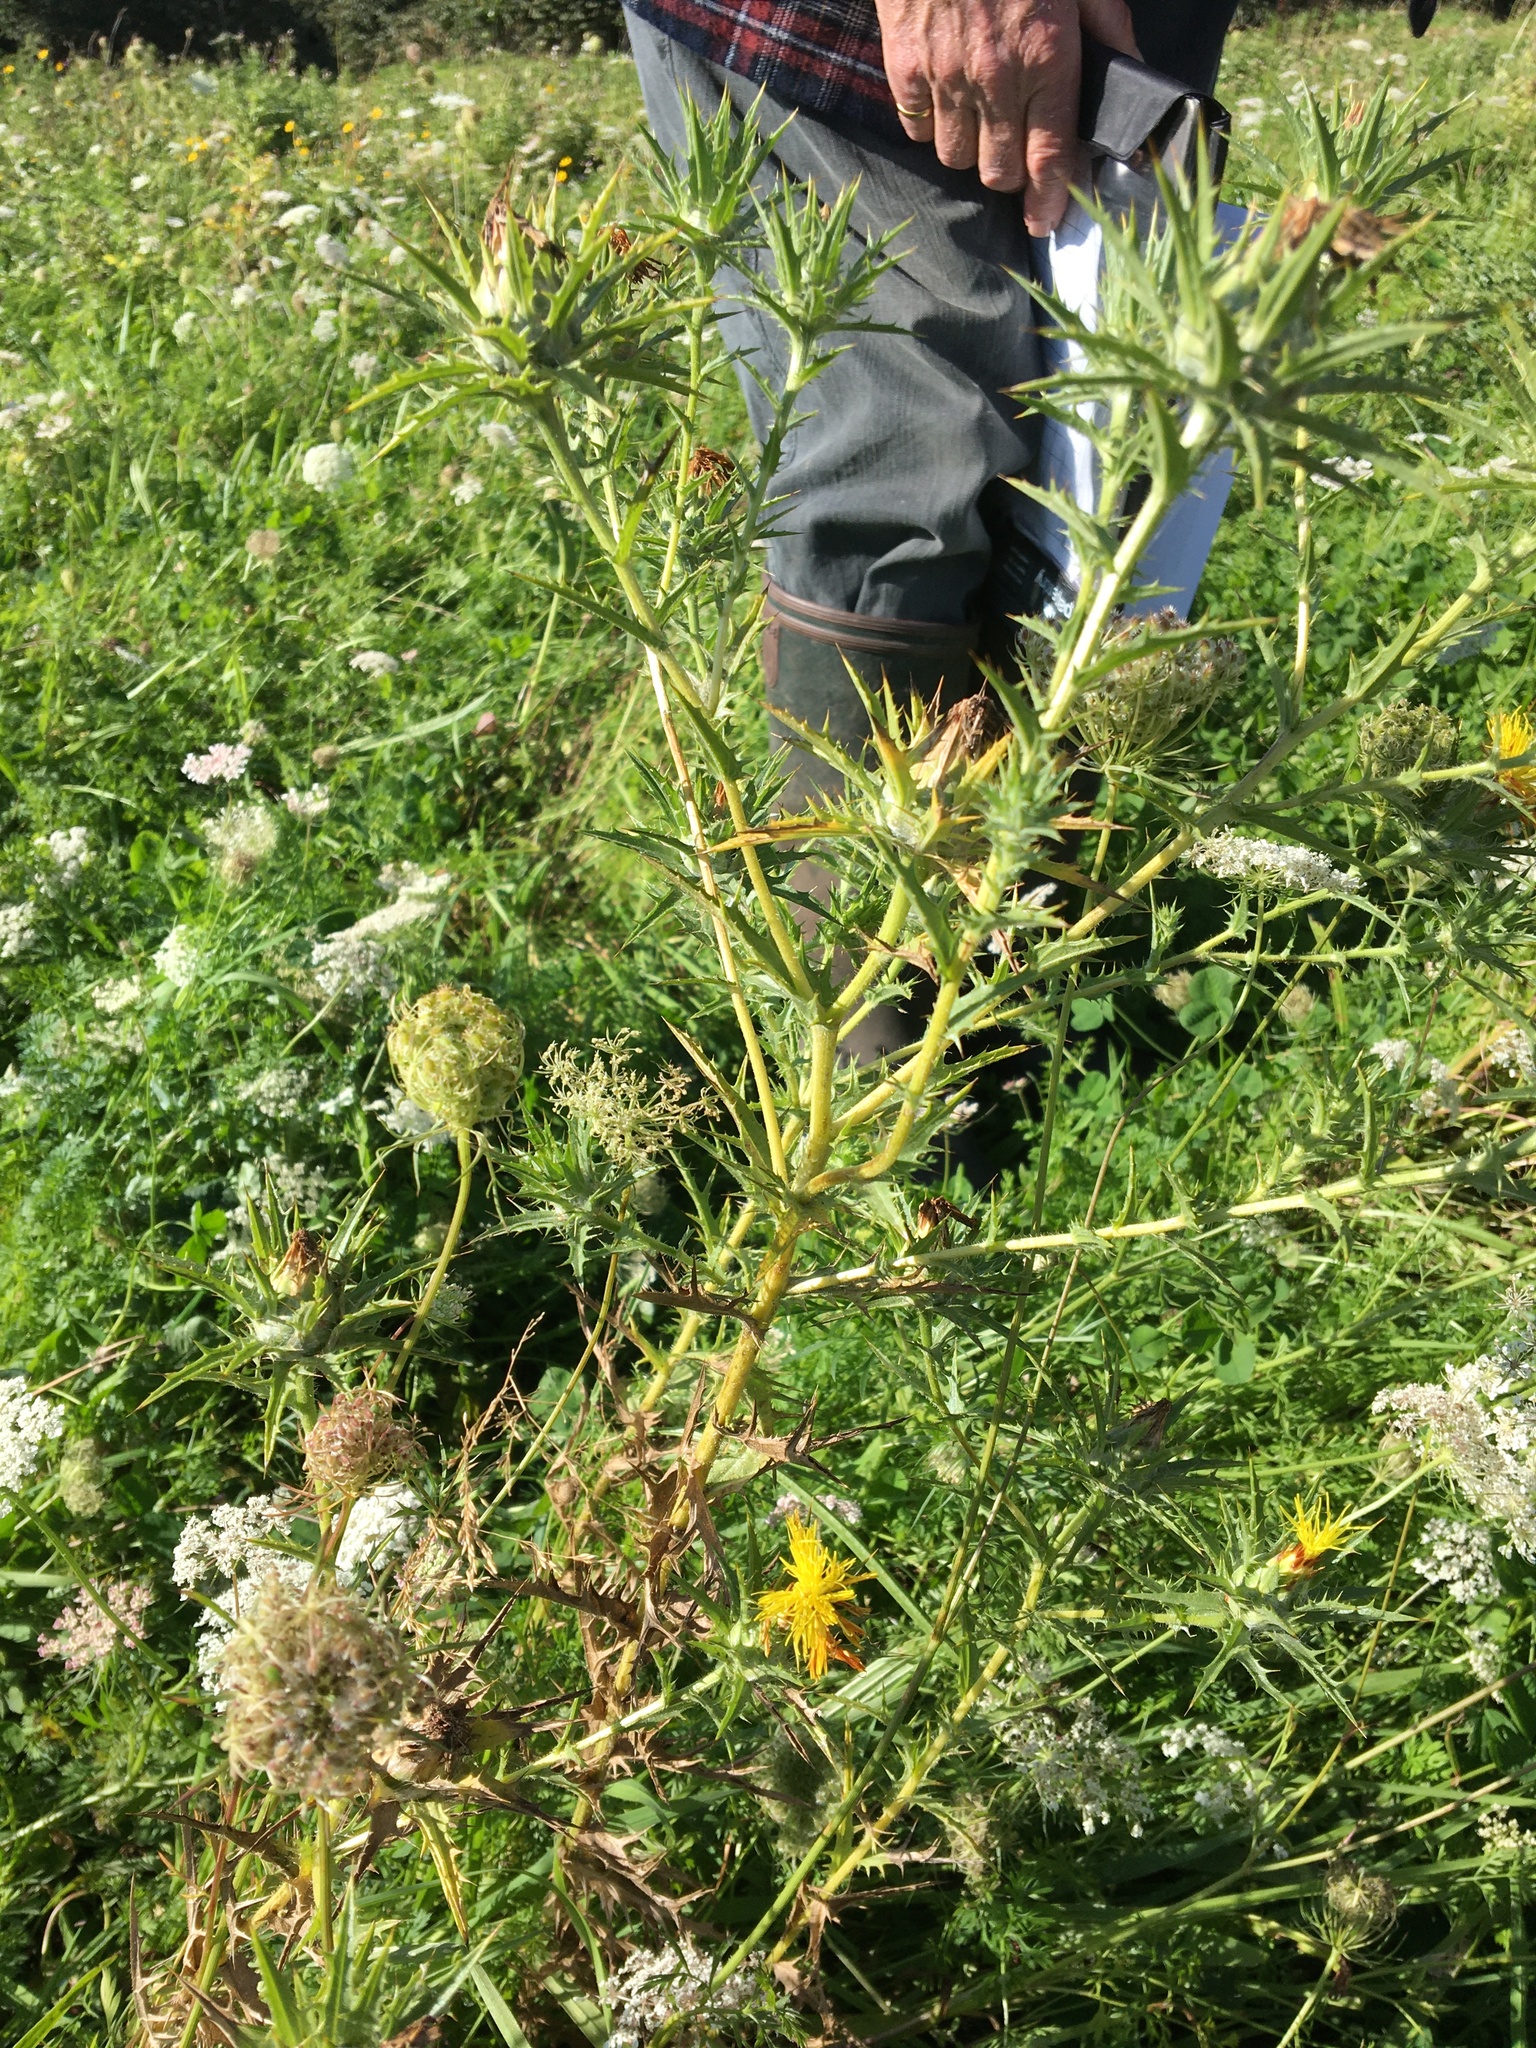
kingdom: Plantae
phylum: Tracheophyta
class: Magnoliopsida
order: Asterales
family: Asteraceae
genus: Carthamus
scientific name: Carthamus lanatus
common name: Downy safflower
